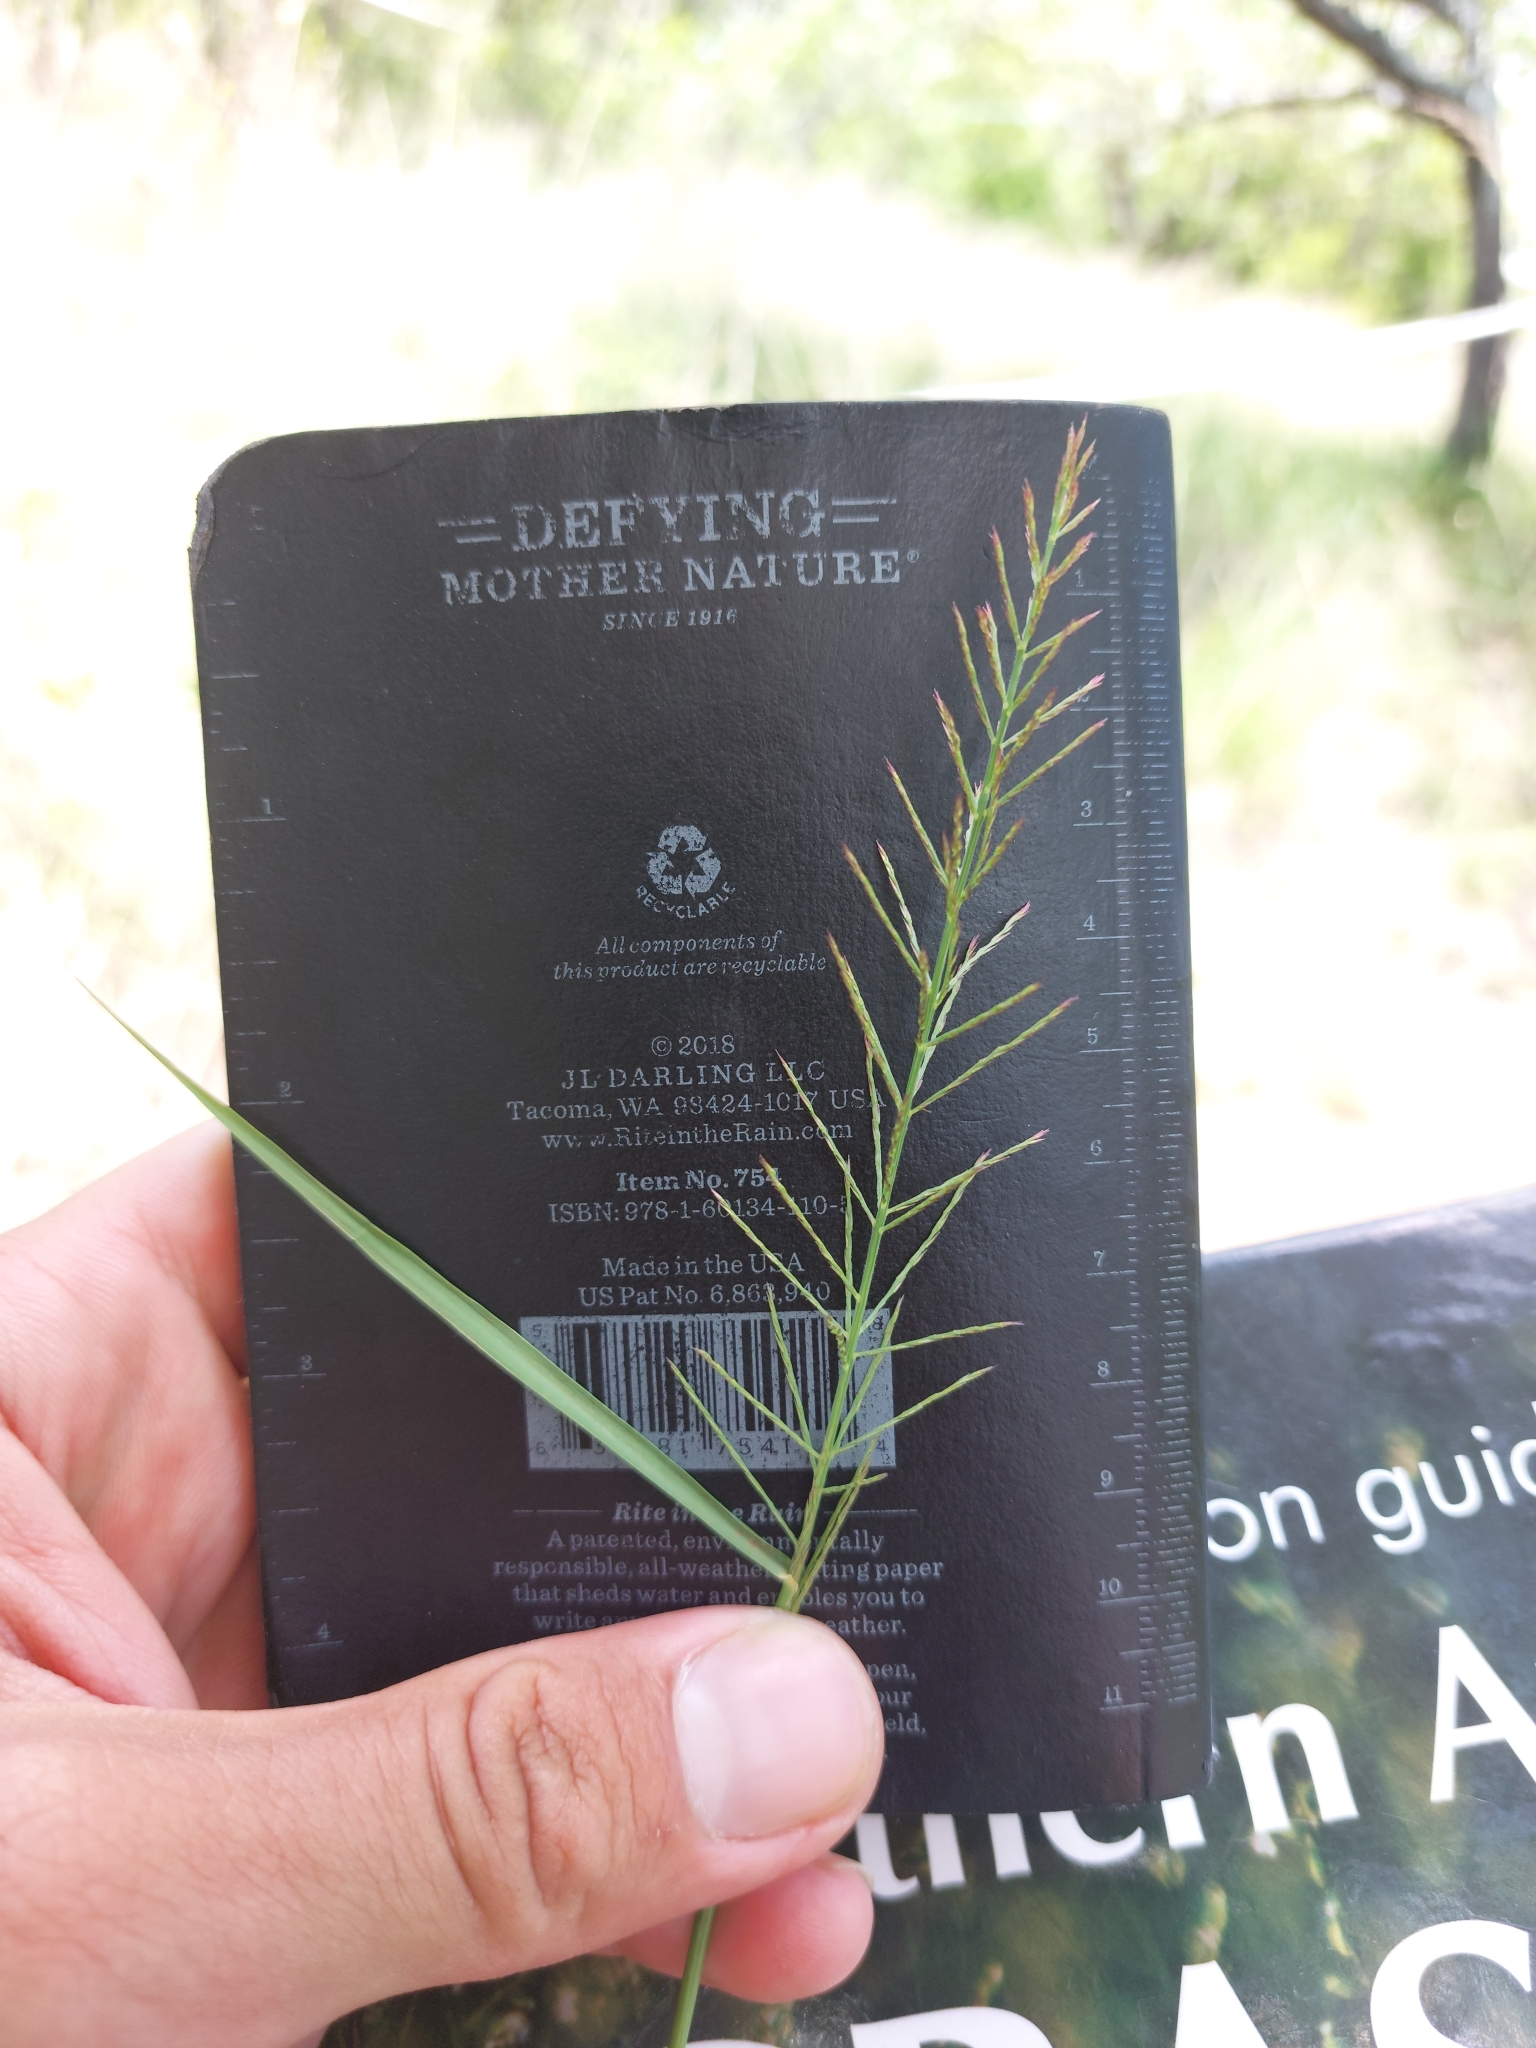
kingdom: Plantae
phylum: Tracheophyta
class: Liliopsida
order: Poales
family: Poaceae
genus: Pogonarthria
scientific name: Pogonarthria squarrosa
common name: Grass
